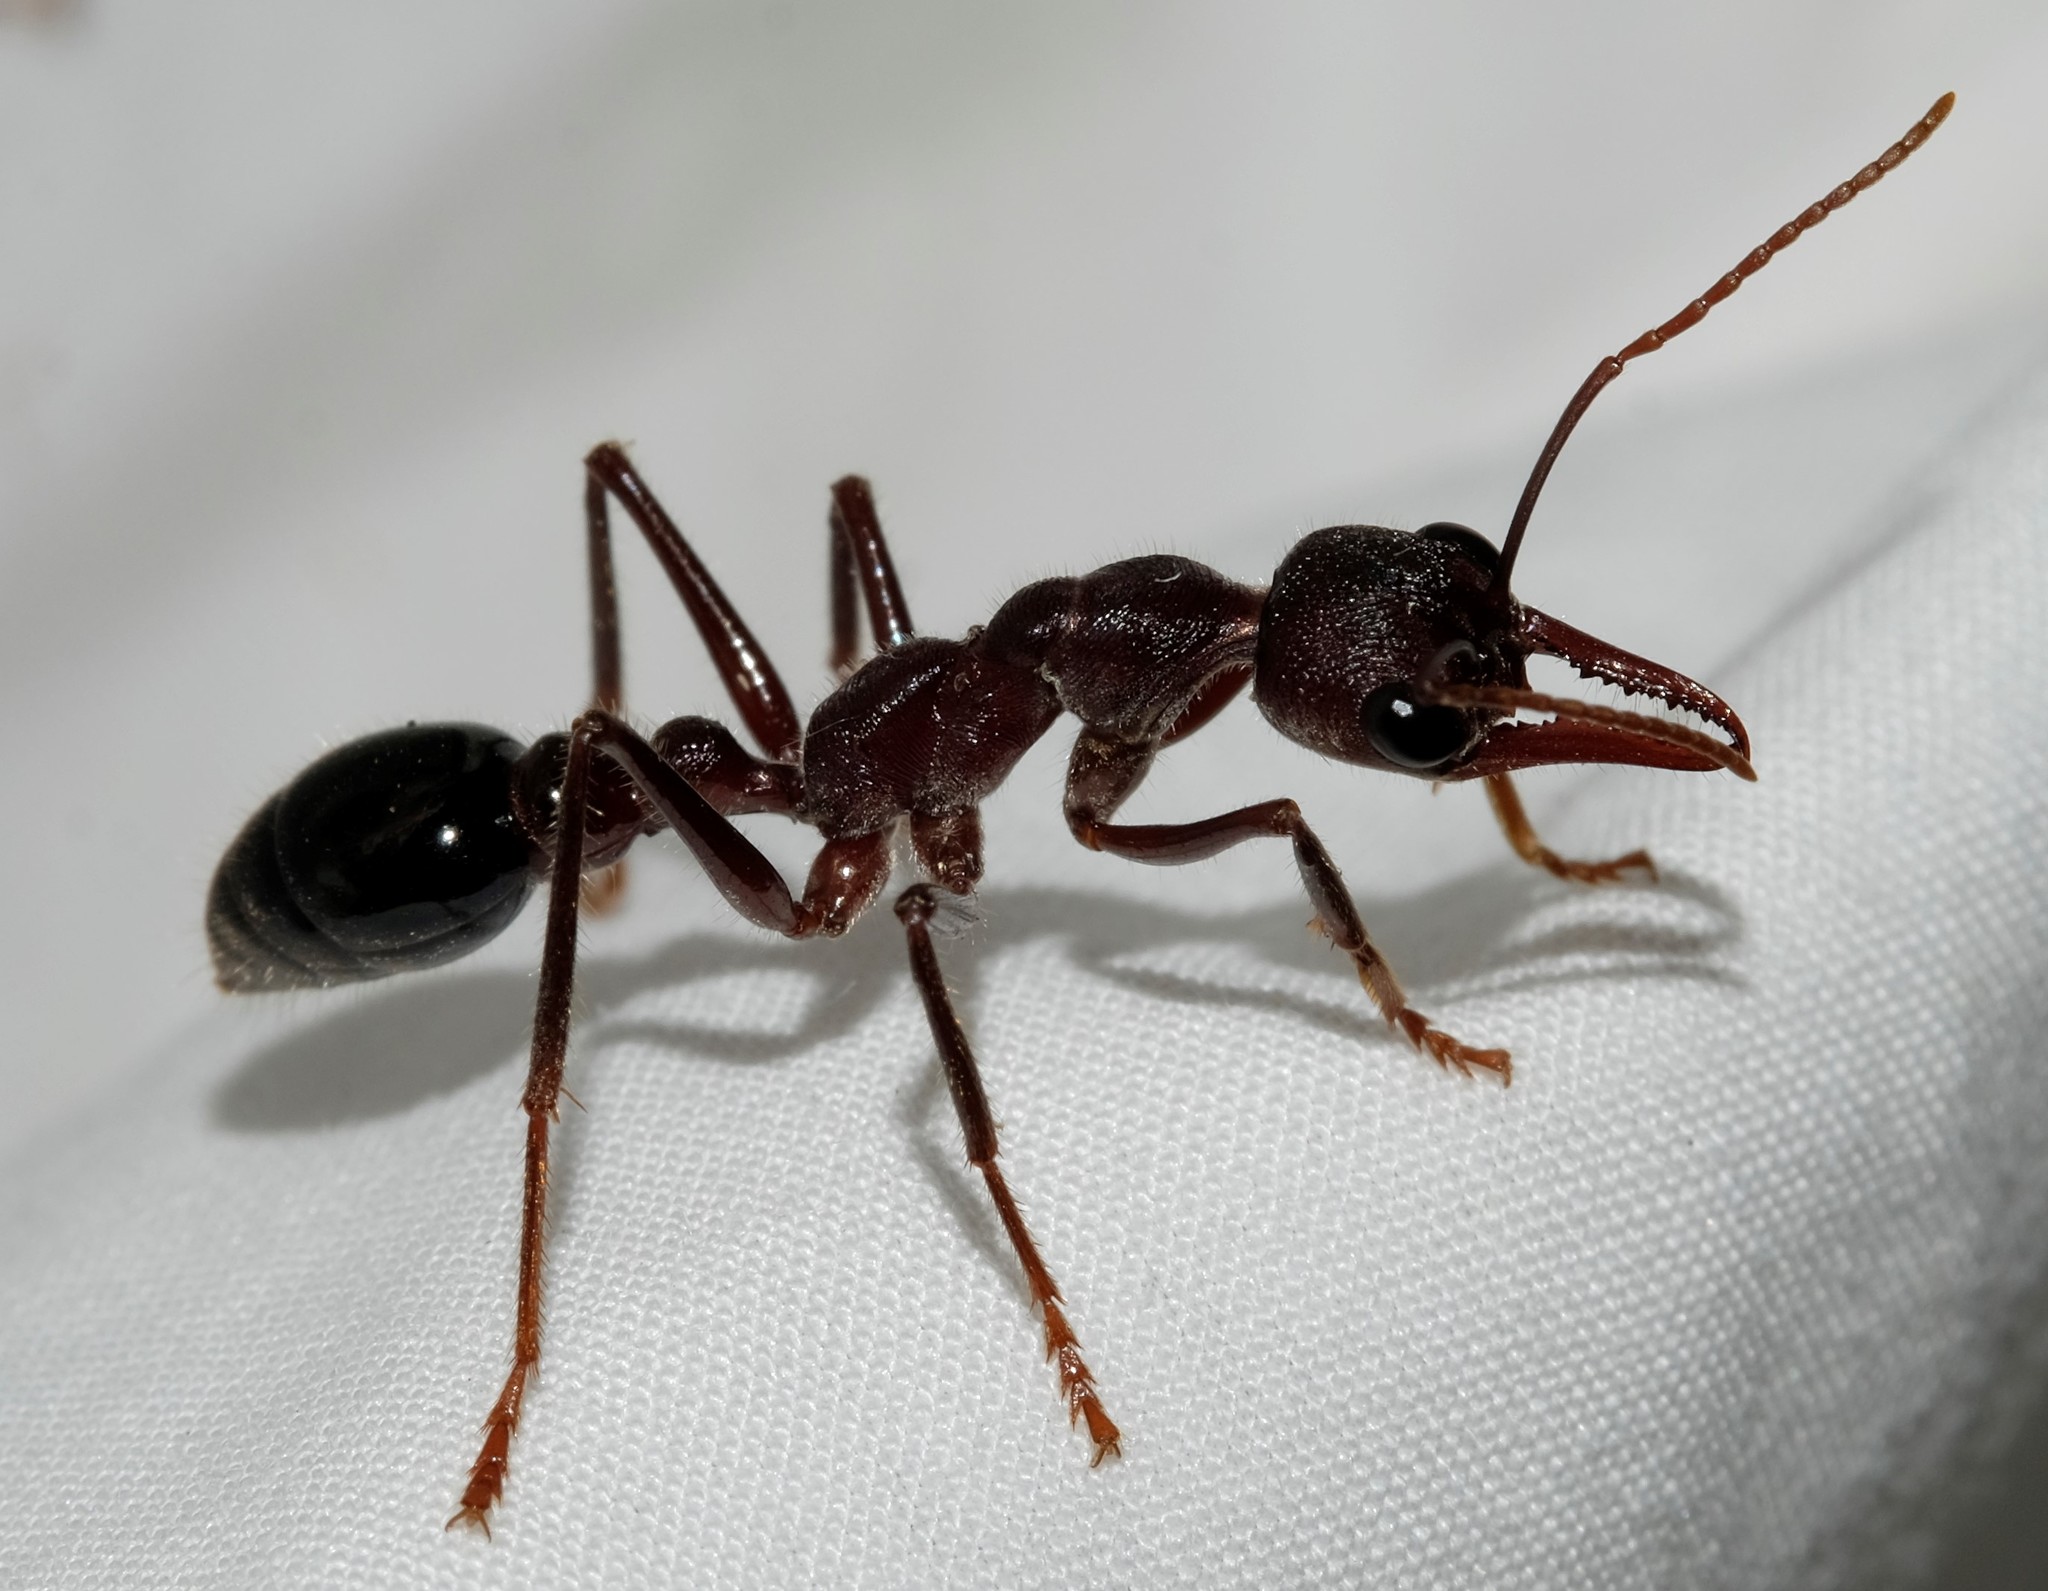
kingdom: Animalia
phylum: Arthropoda
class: Insecta
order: Hymenoptera
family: Formicidae
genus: Myrmecia
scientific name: Myrmecia forficata
